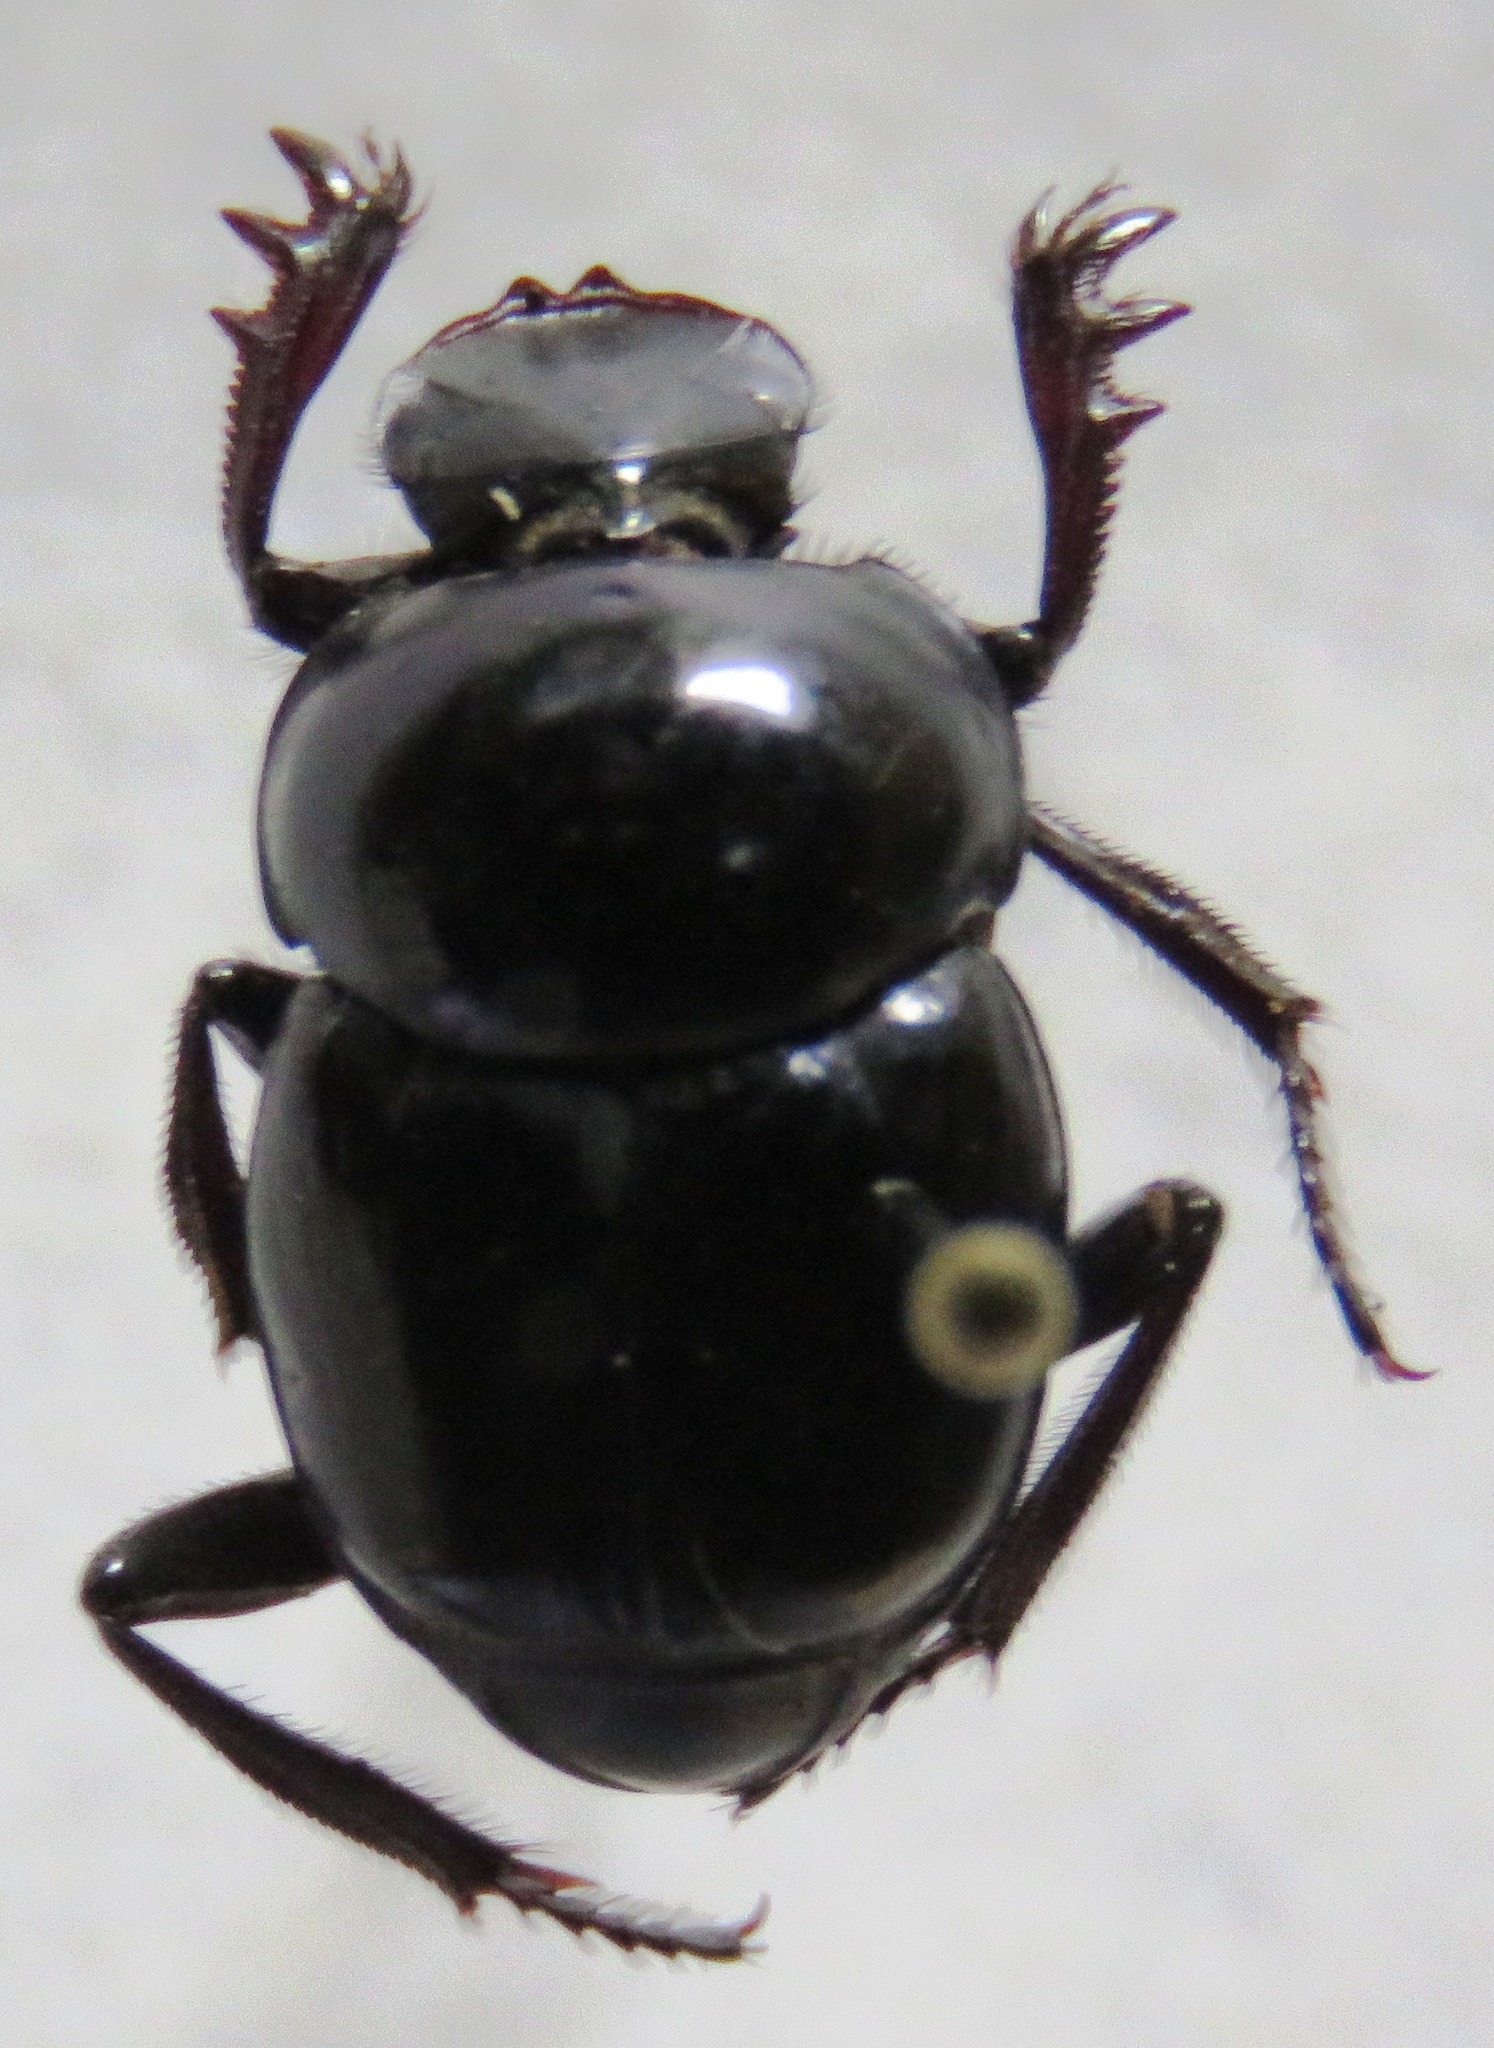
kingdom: Animalia
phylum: Arthropoda
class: Insecta
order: Coleoptera
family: Scarabaeidae
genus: Canthon
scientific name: Canthon indigaceus
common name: Tumblebug
